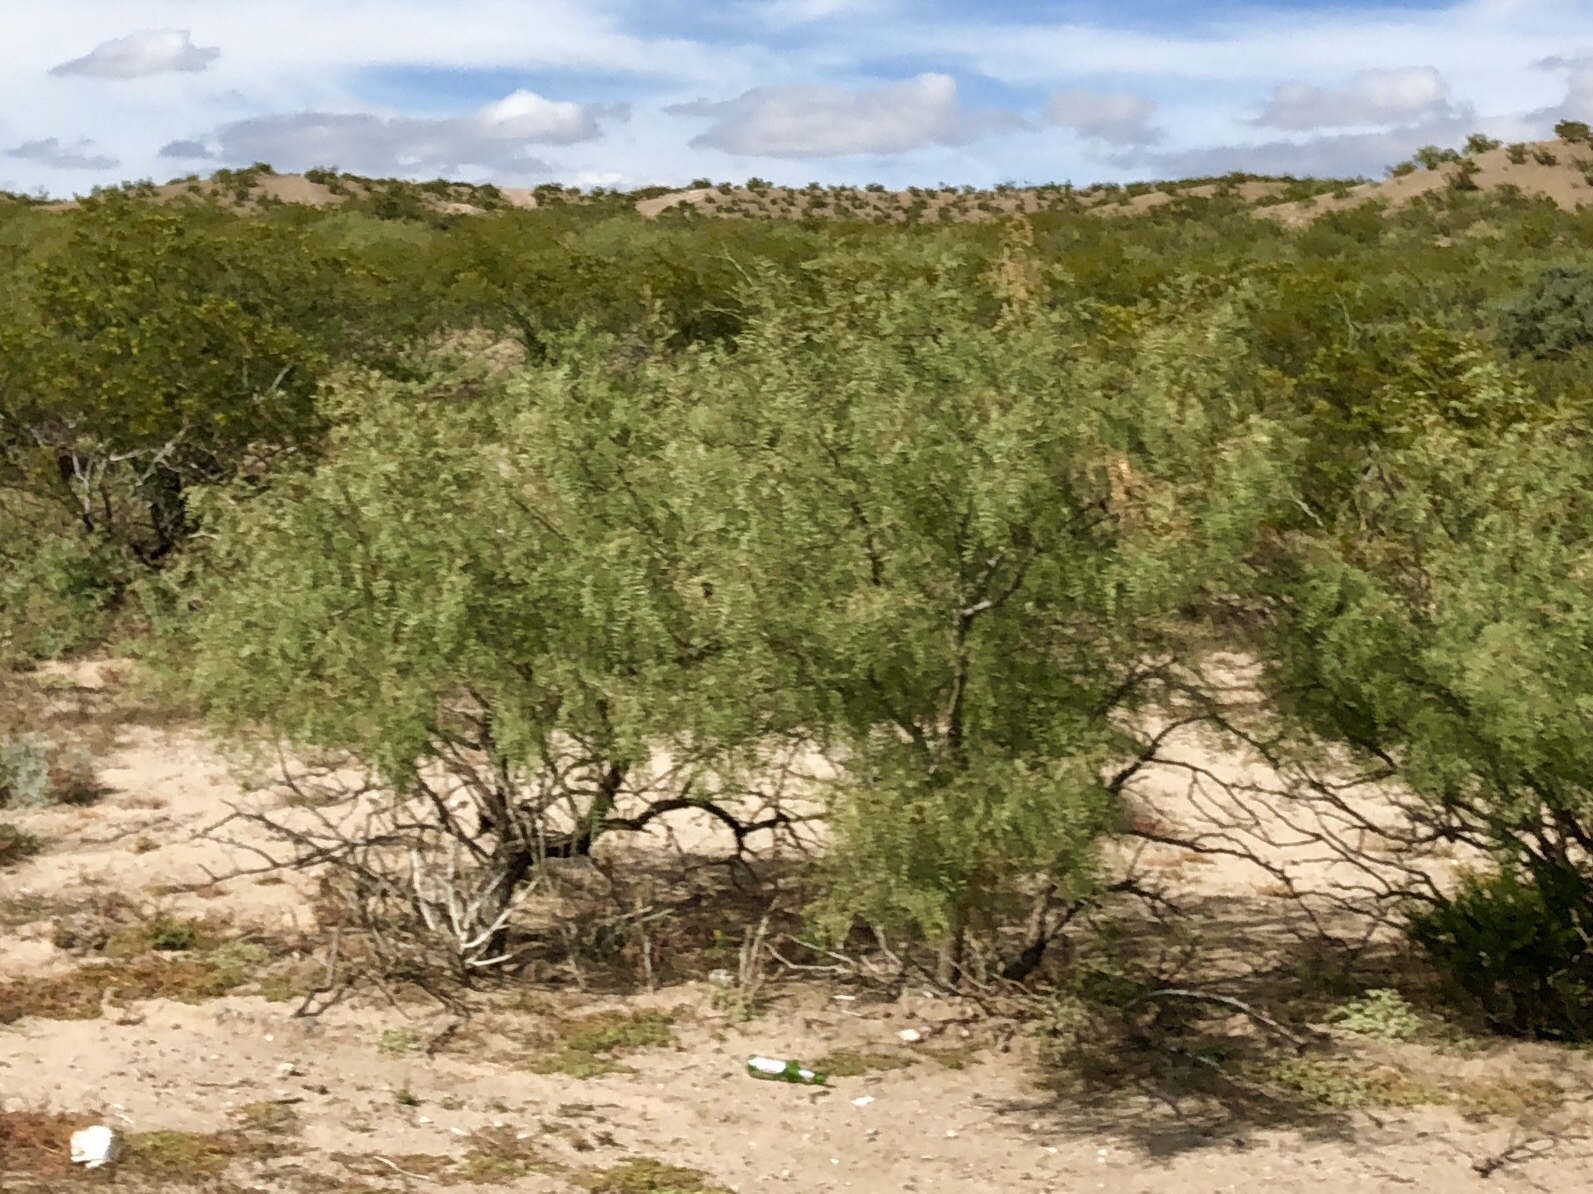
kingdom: Plantae
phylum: Tracheophyta
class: Magnoliopsida
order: Fabales
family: Fabaceae
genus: Prosopis
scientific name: Prosopis glandulosa
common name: Honey mesquite
